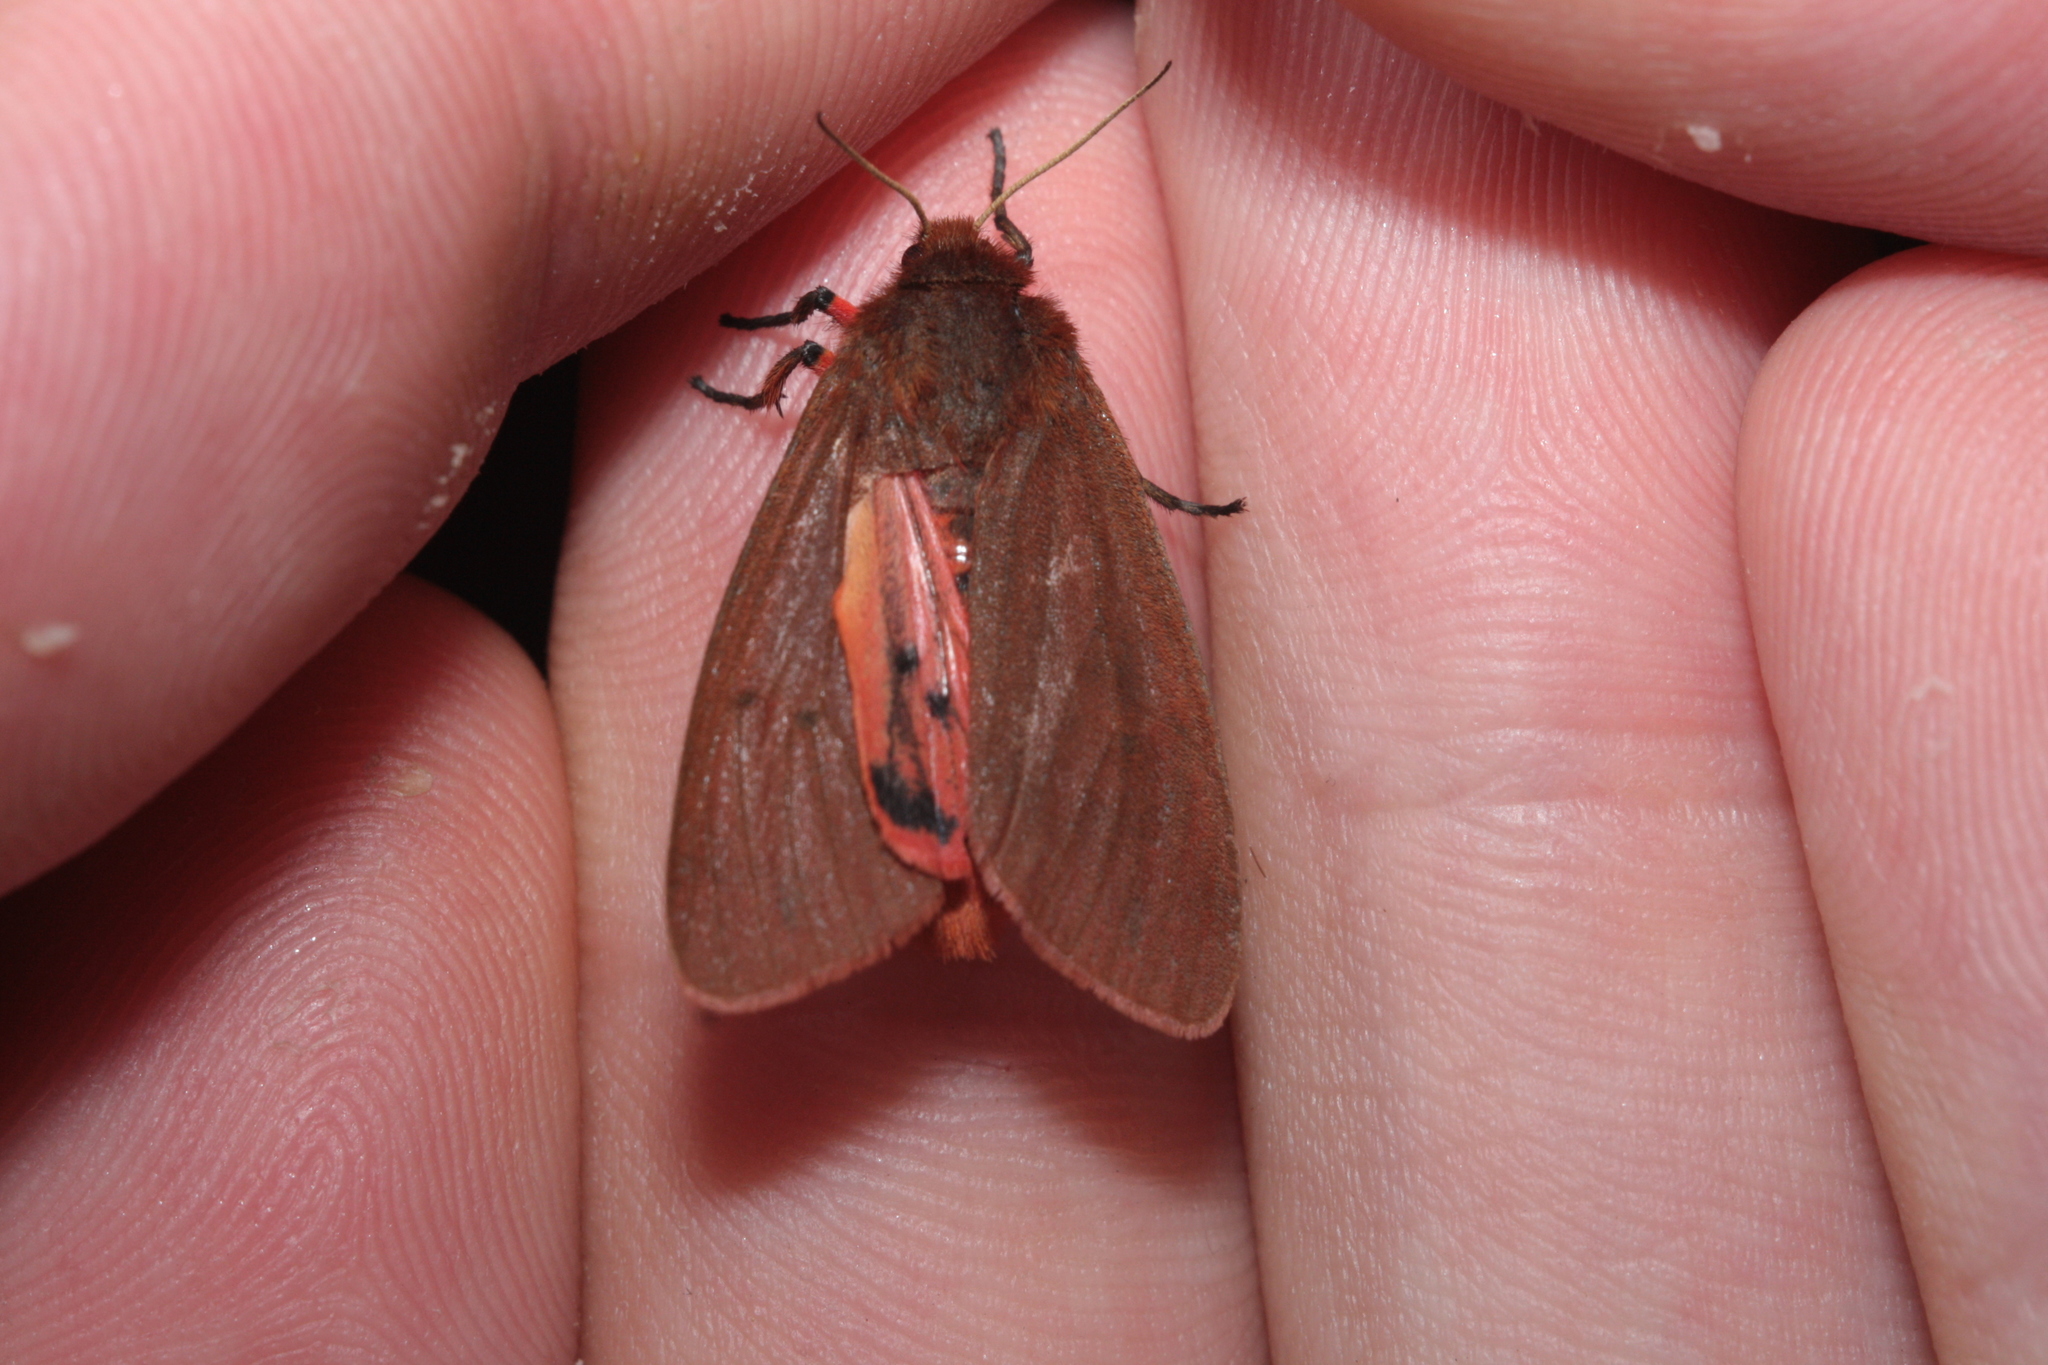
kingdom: Animalia
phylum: Arthropoda
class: Insecta
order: Lepidoptera
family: Erebidae
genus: Phragmatobia
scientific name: Phragmatobia fuliginosa
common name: Ruby tiger
